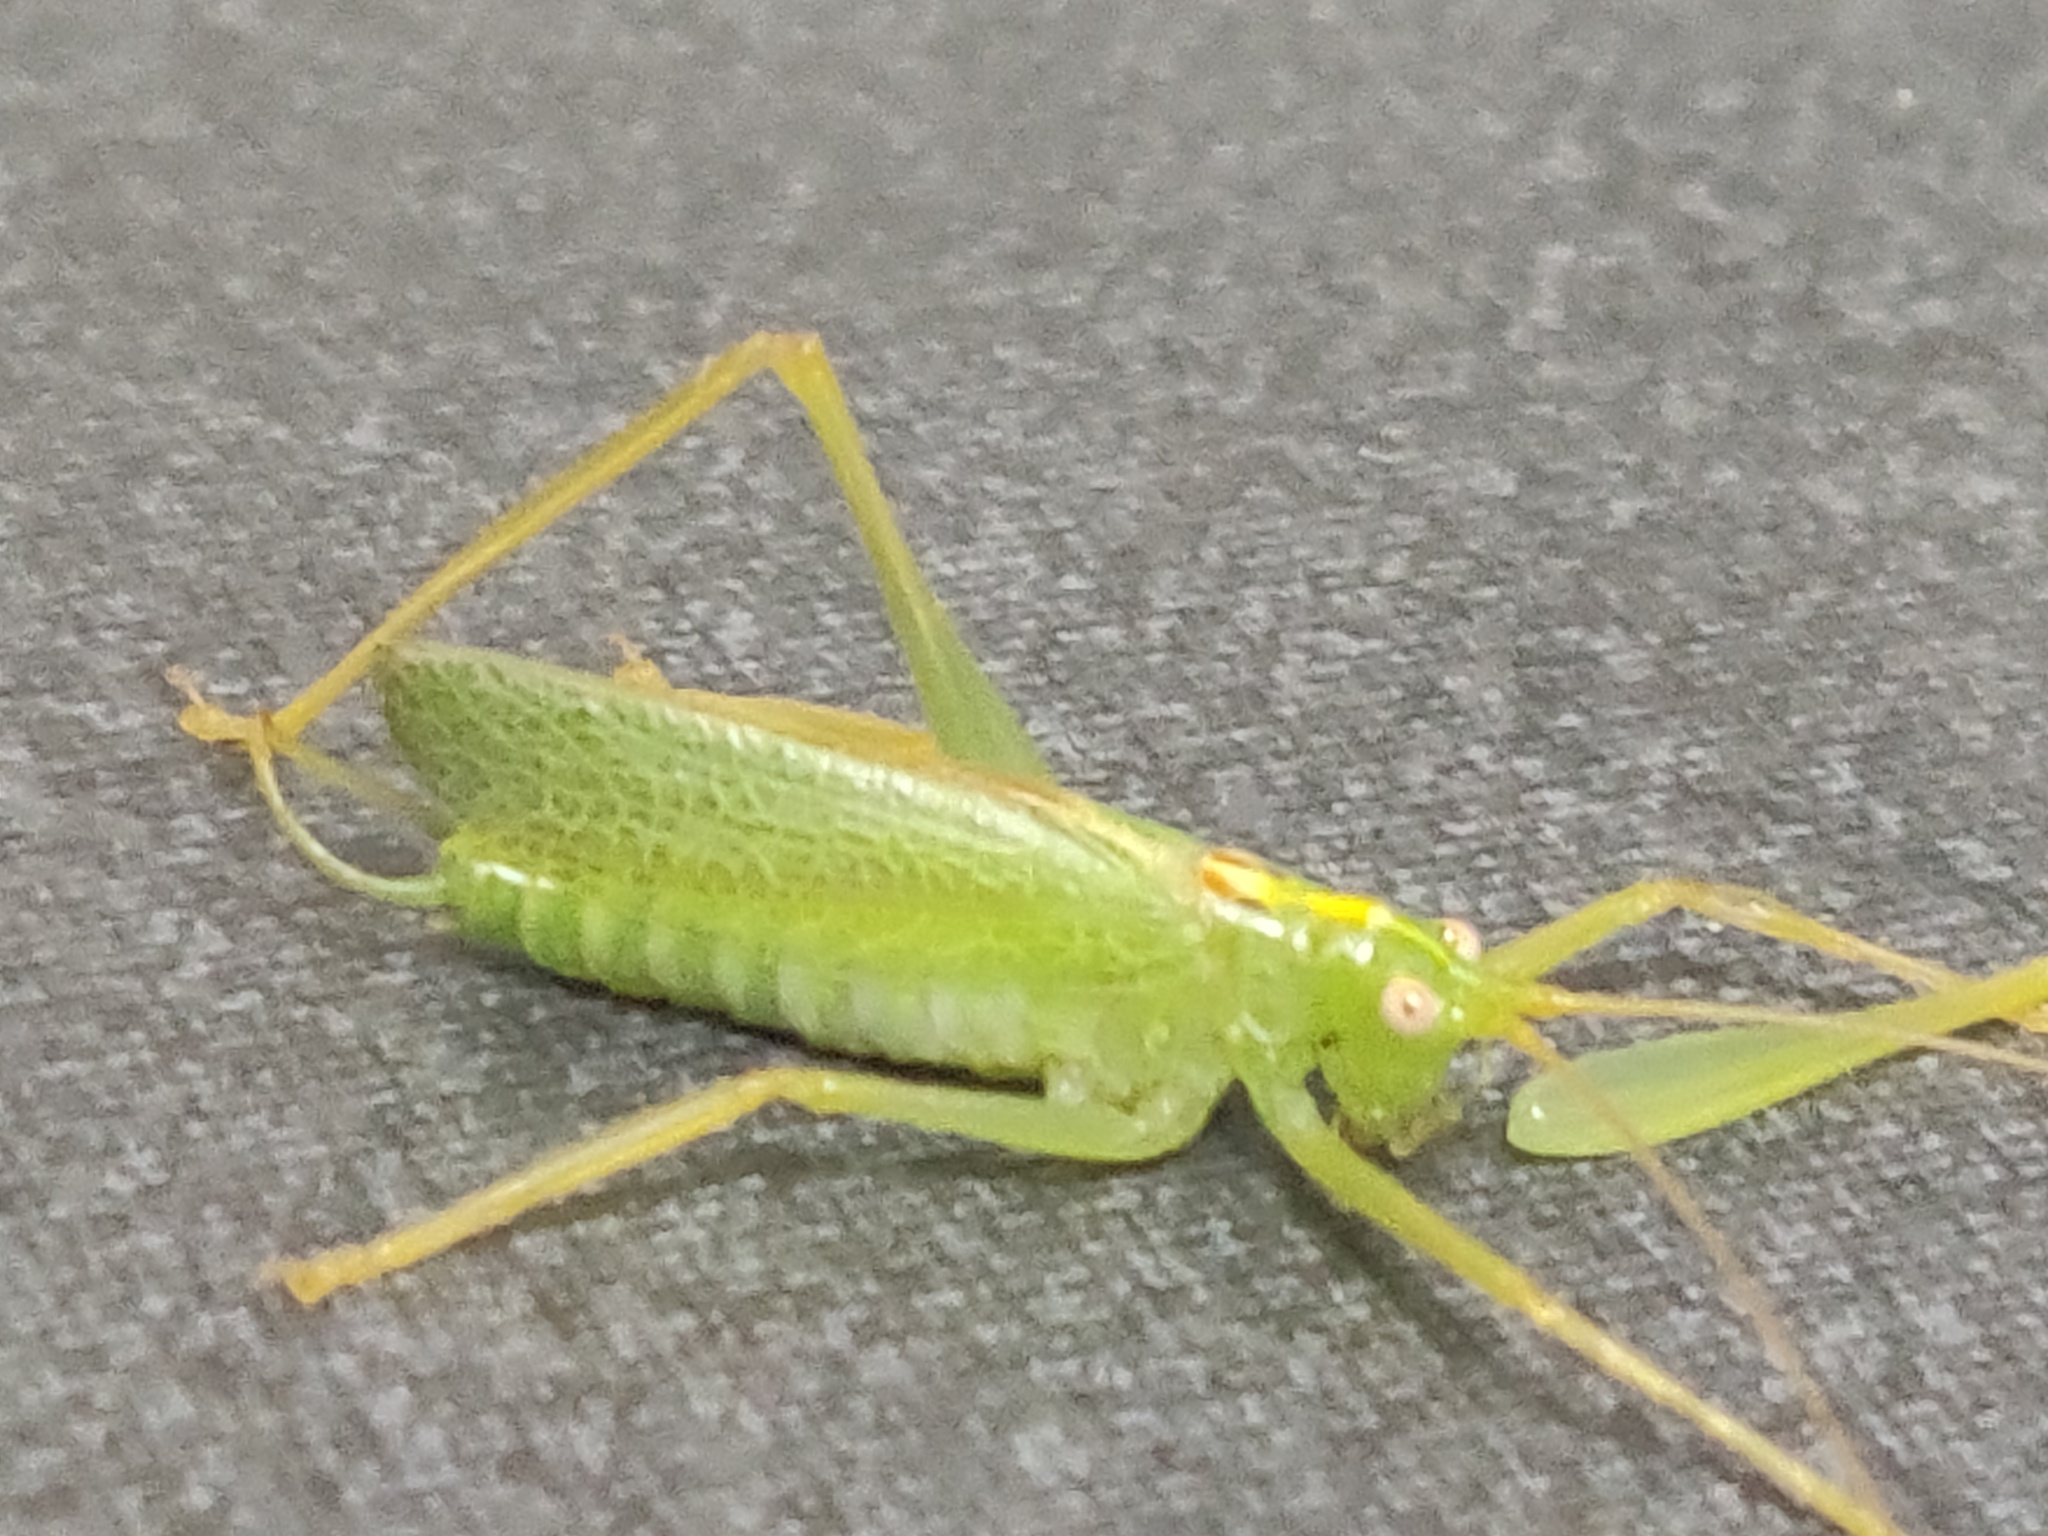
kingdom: Animalia
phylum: Arthropoda
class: Insecta
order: Orthoptera
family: Tettigoniidae
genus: Meconema
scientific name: Meconema thalassinum
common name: Oak bush-cricket
